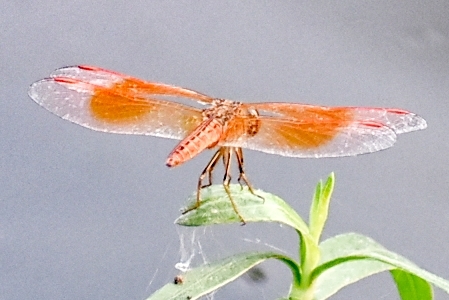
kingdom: Animalia
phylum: Arthropoda
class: Insecta
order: Odonata
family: Libellulidae
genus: Brachythemis
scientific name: Brachythemis contaminata
